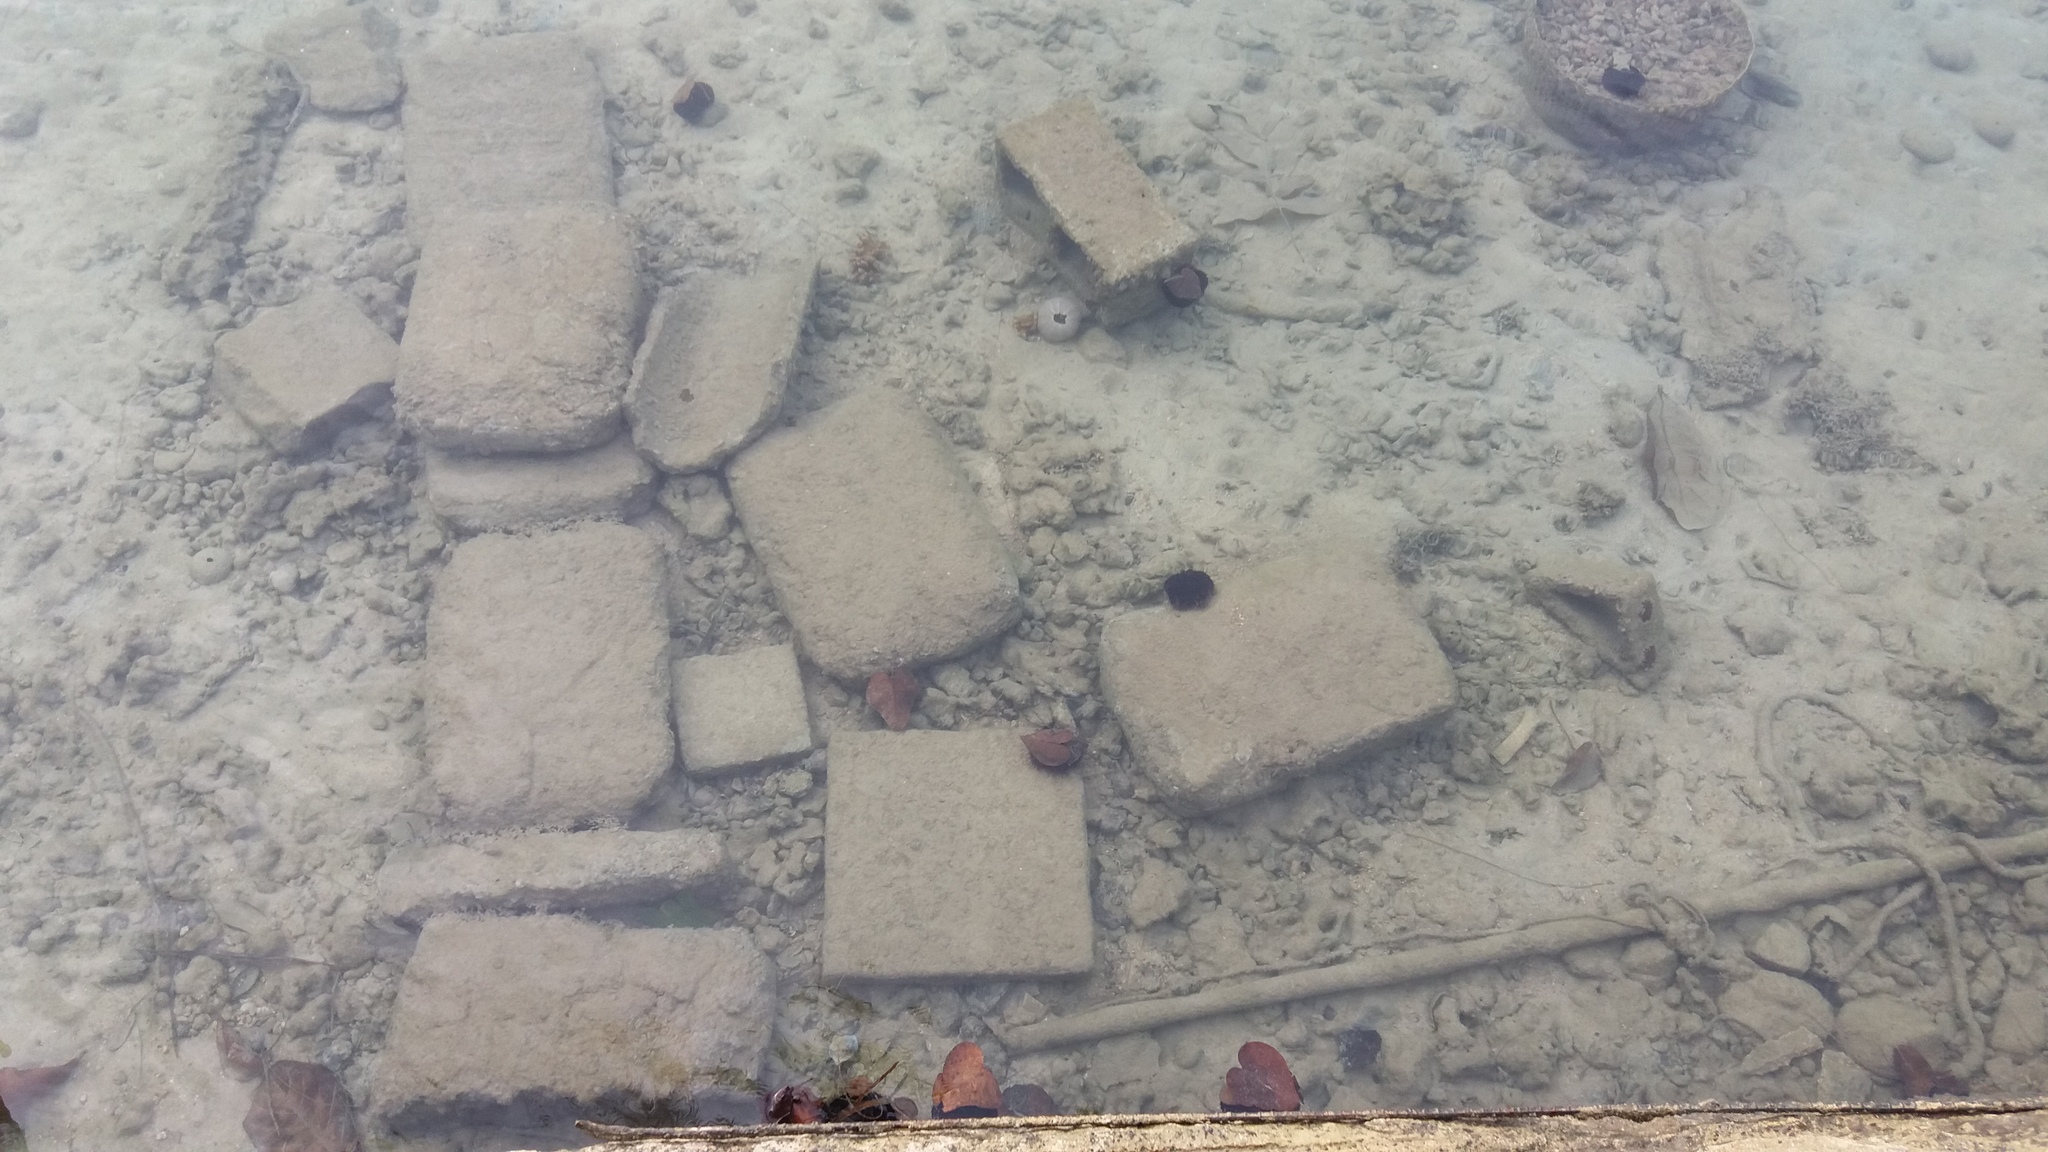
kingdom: Animalia
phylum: Echinodermata
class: Echinoidea
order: Camarodonta
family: Toxopneustidae
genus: Tripneustes
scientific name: Tripneustes gratilla
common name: Bischofsmützenseeigel
